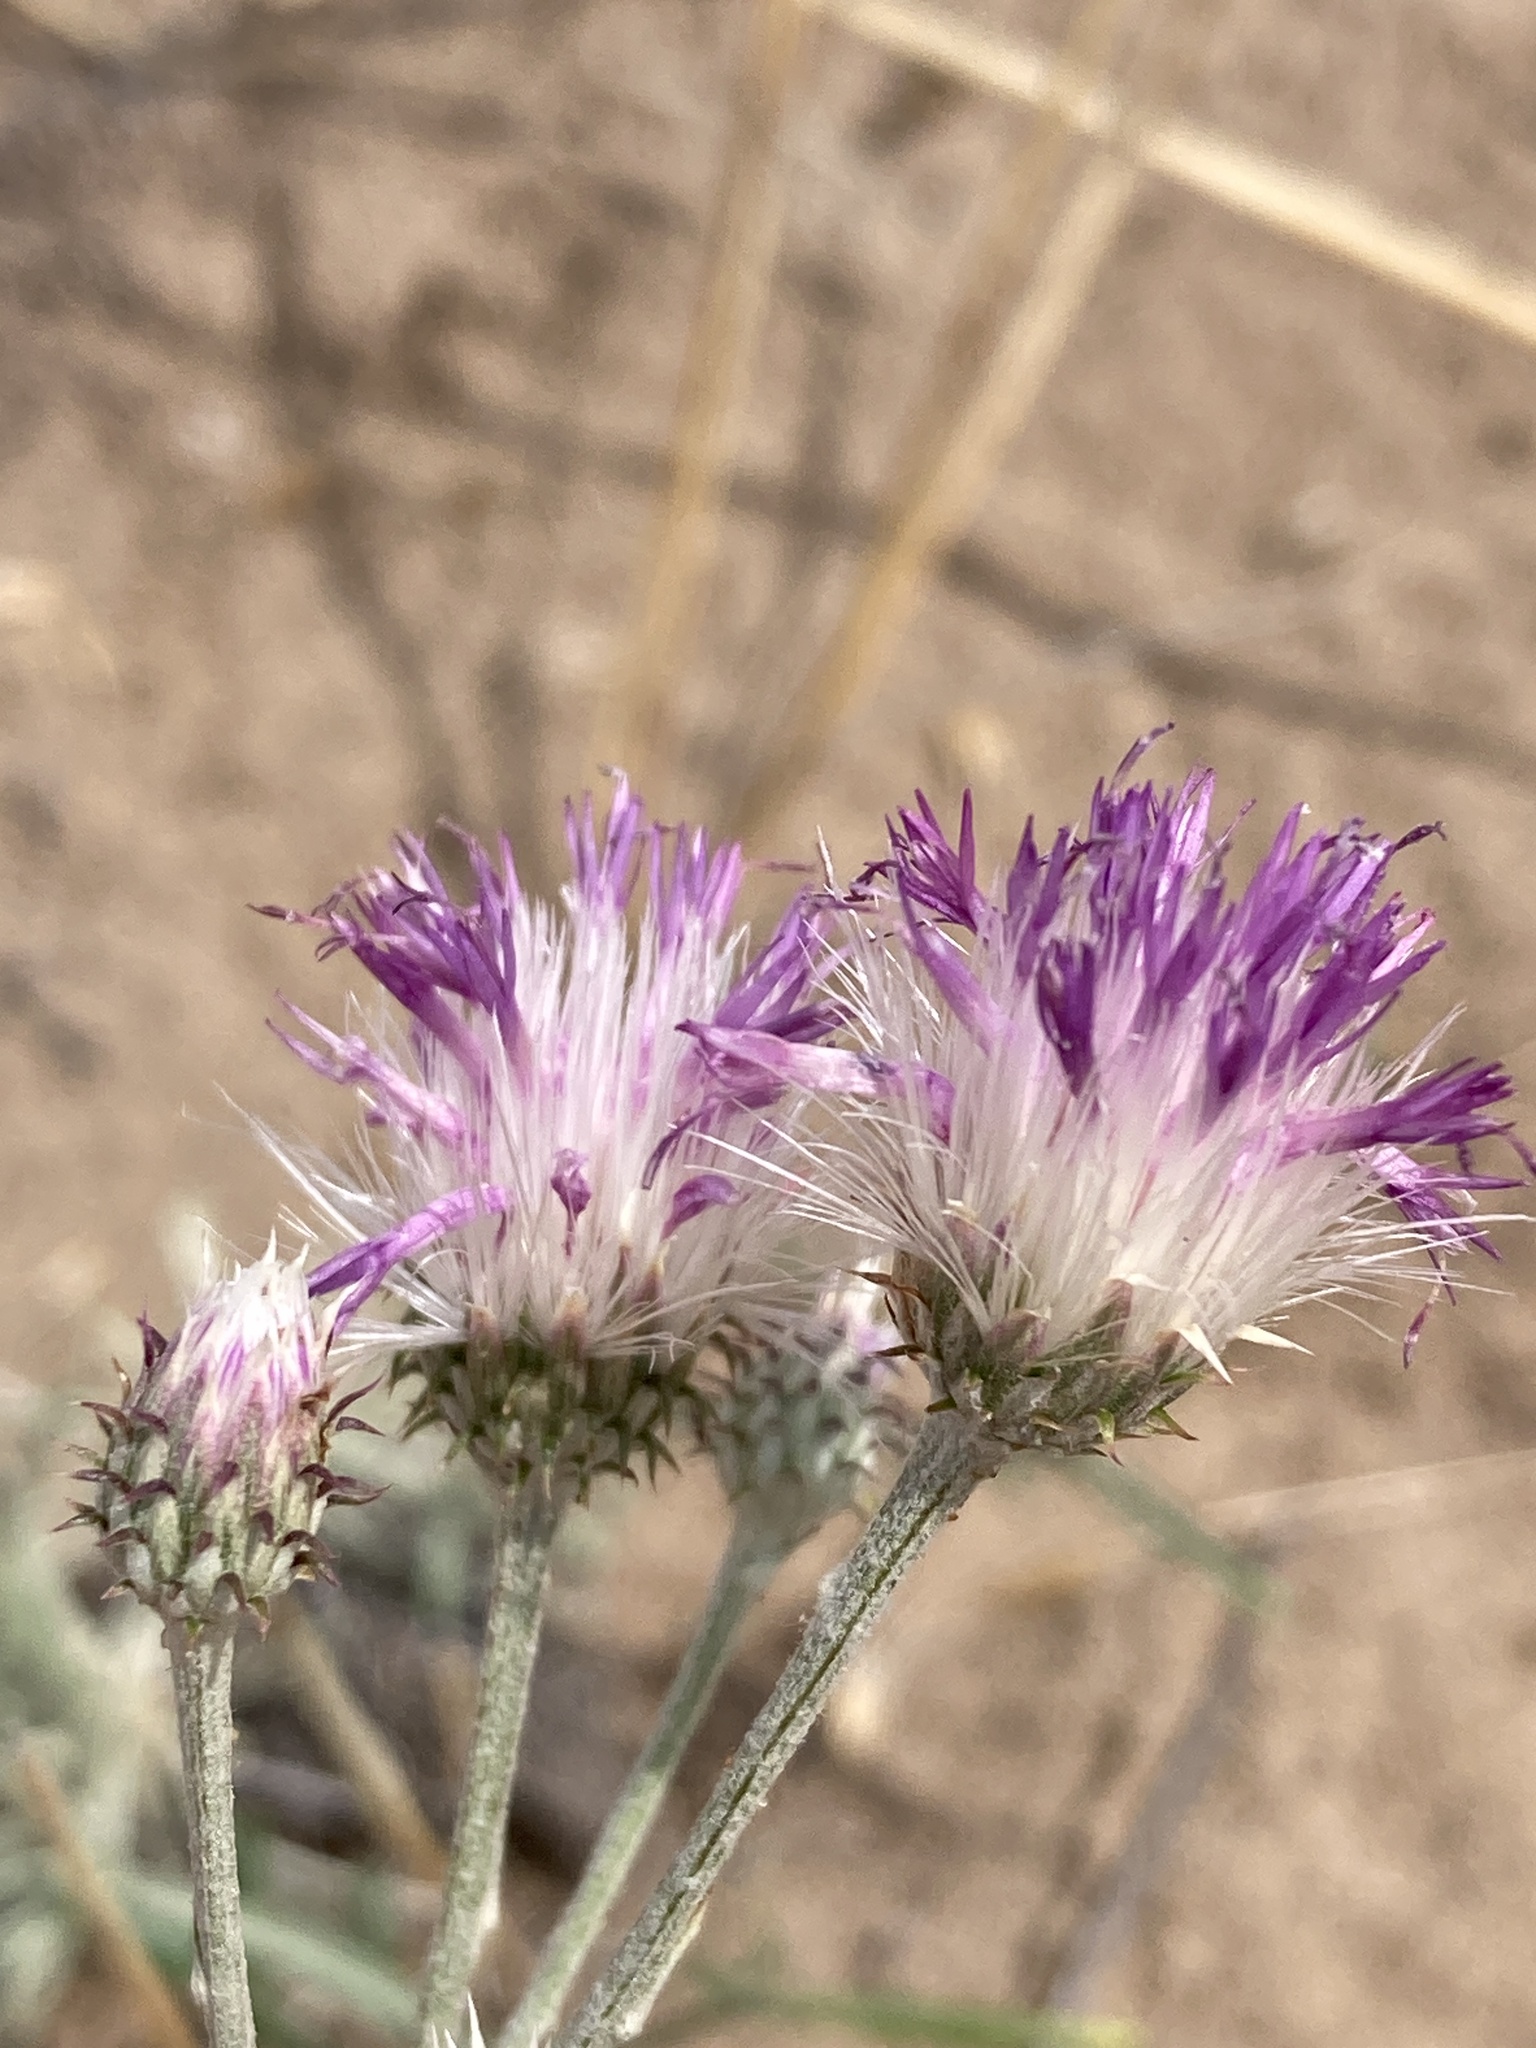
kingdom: Plantae
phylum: Tracheophyta
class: Magnoliopsida
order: Asterales
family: Asteraceae
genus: Jurinea
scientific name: Jurinea cyanoides
